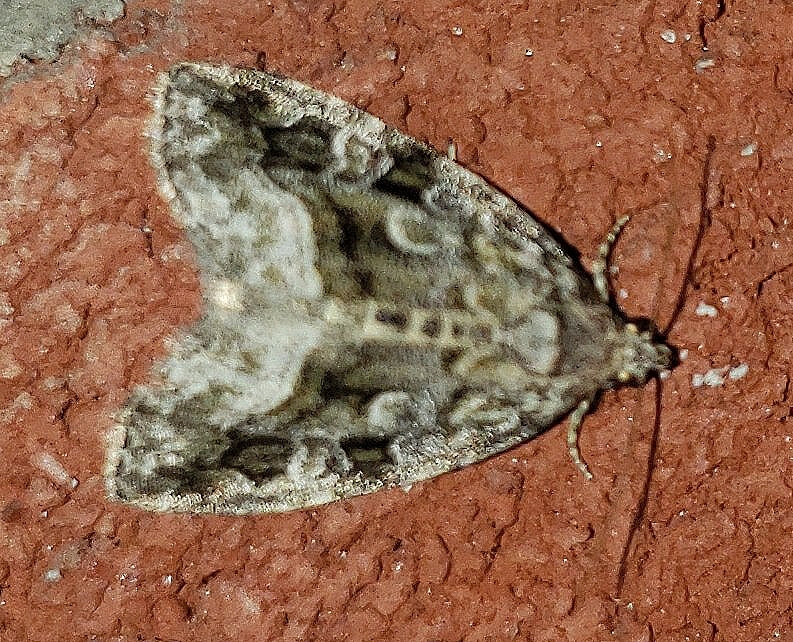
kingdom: Animalia
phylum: Arthropoda
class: Insecta
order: Lepidoptera
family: Noctuidae
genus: Protodeltote
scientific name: Protodeltote muscosula
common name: Large mossy glyph
